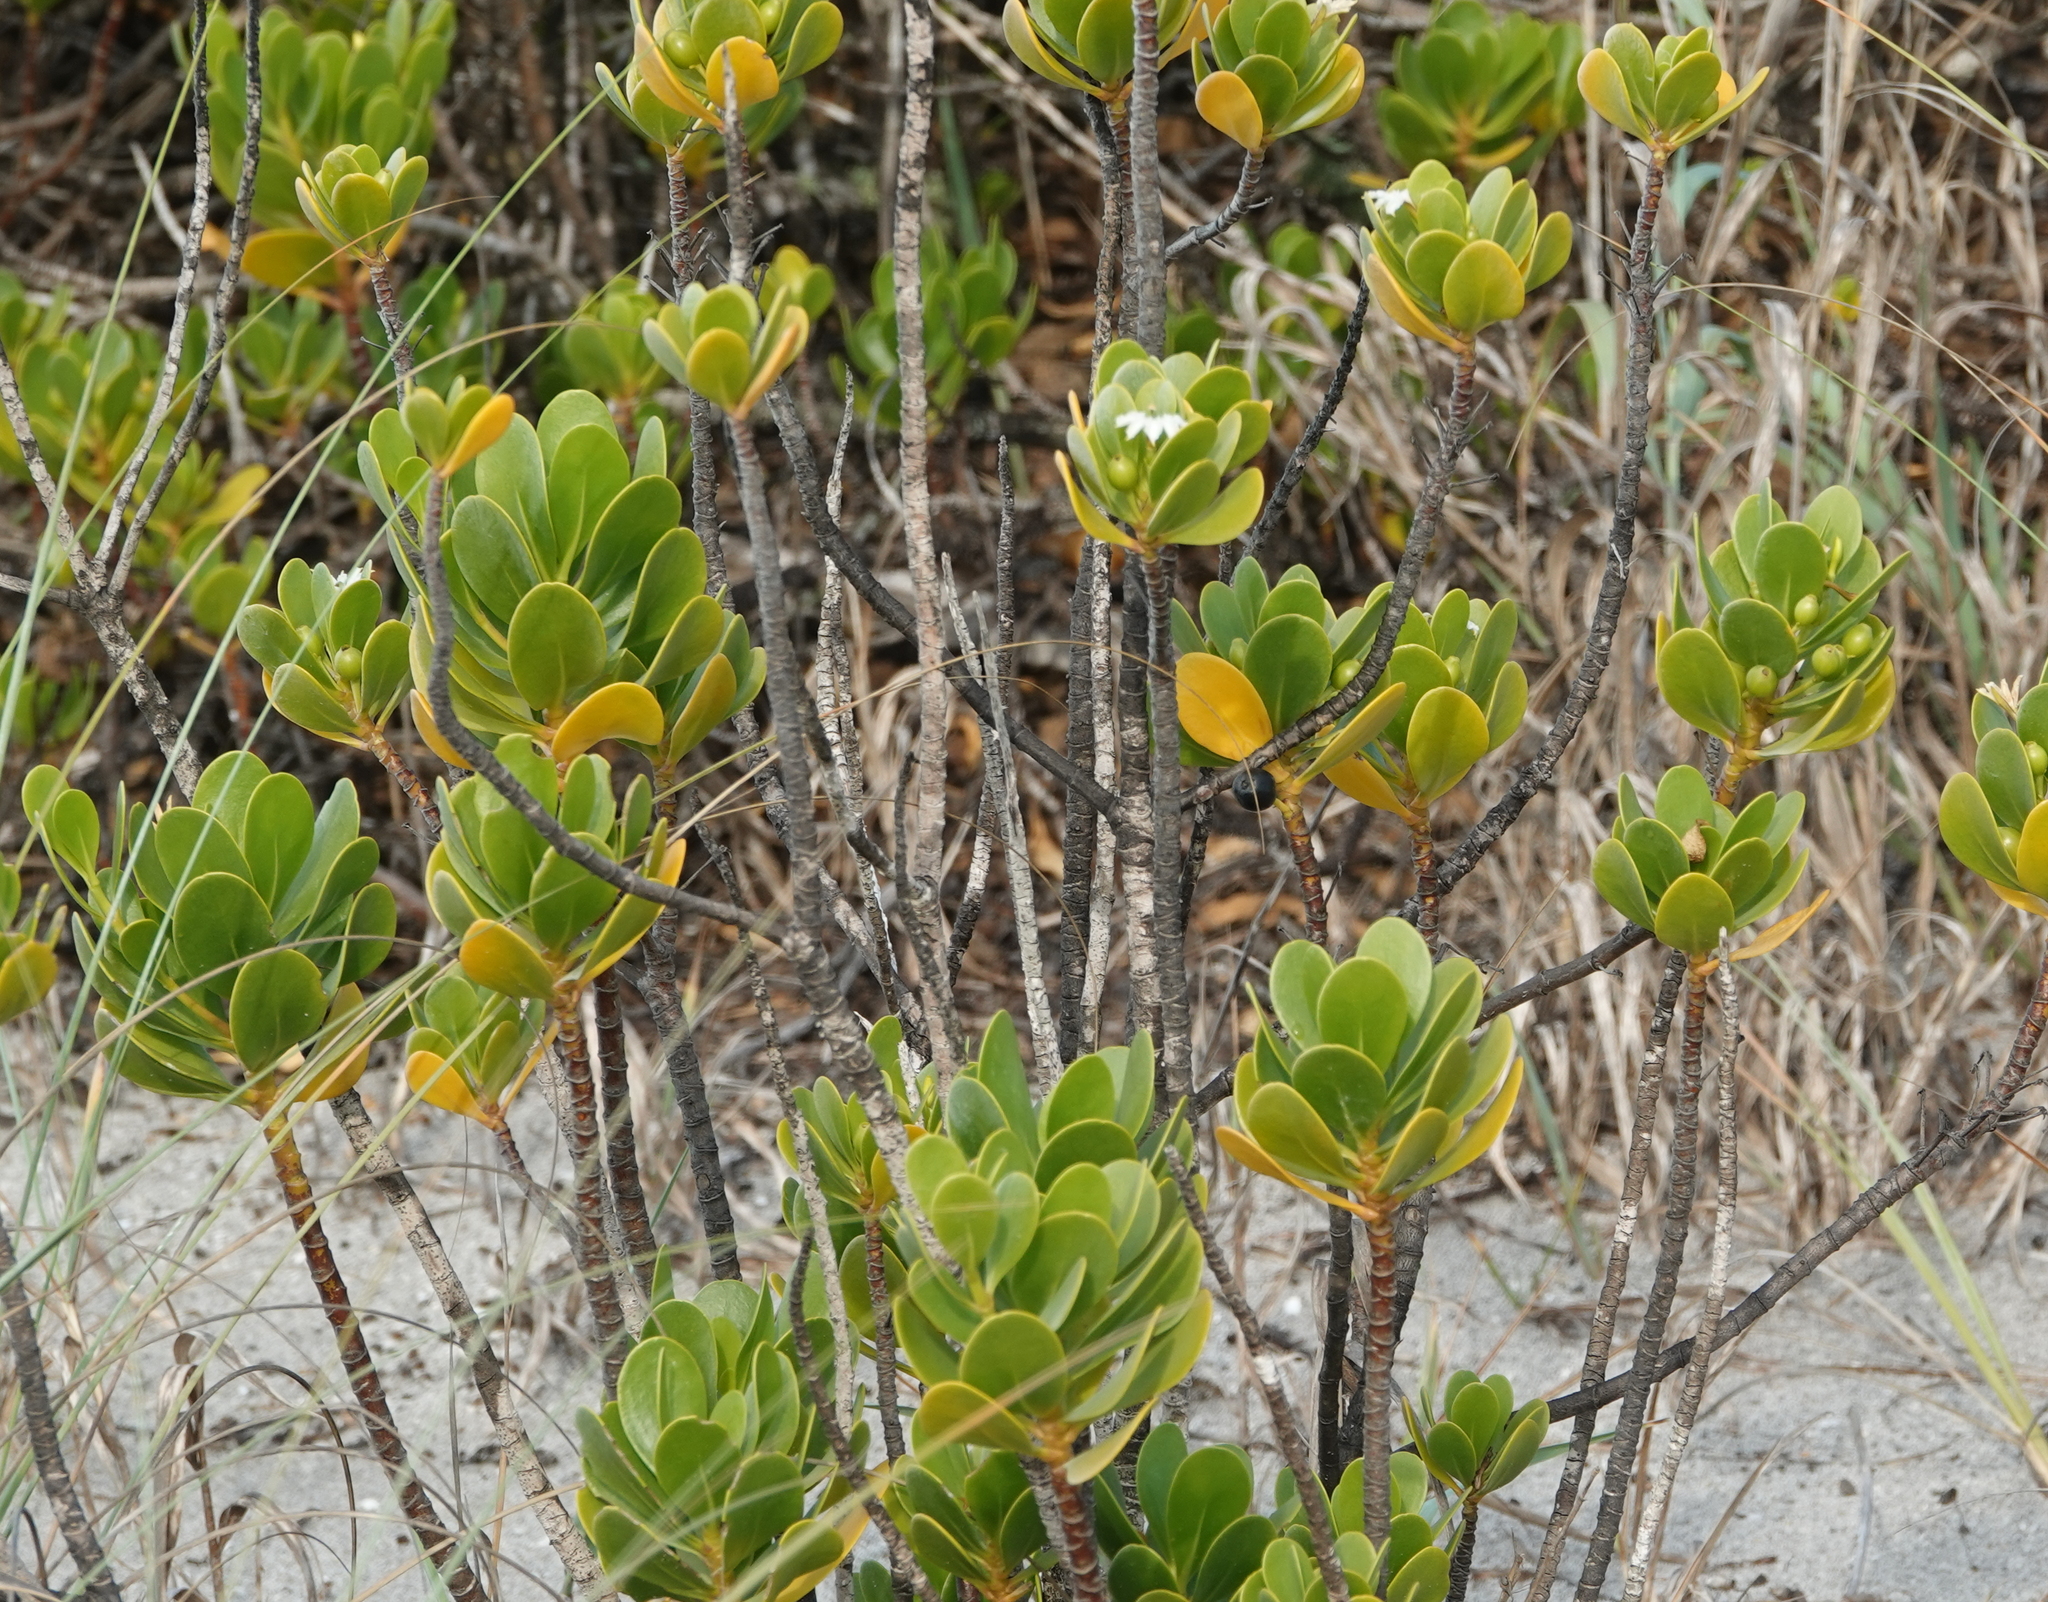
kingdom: Plantae
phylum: Tracheophyta
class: Magnoliopsida
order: Asterales
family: Goodeniaceae
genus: Scaevola
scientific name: Scaevola plumieri
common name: Gull feed
